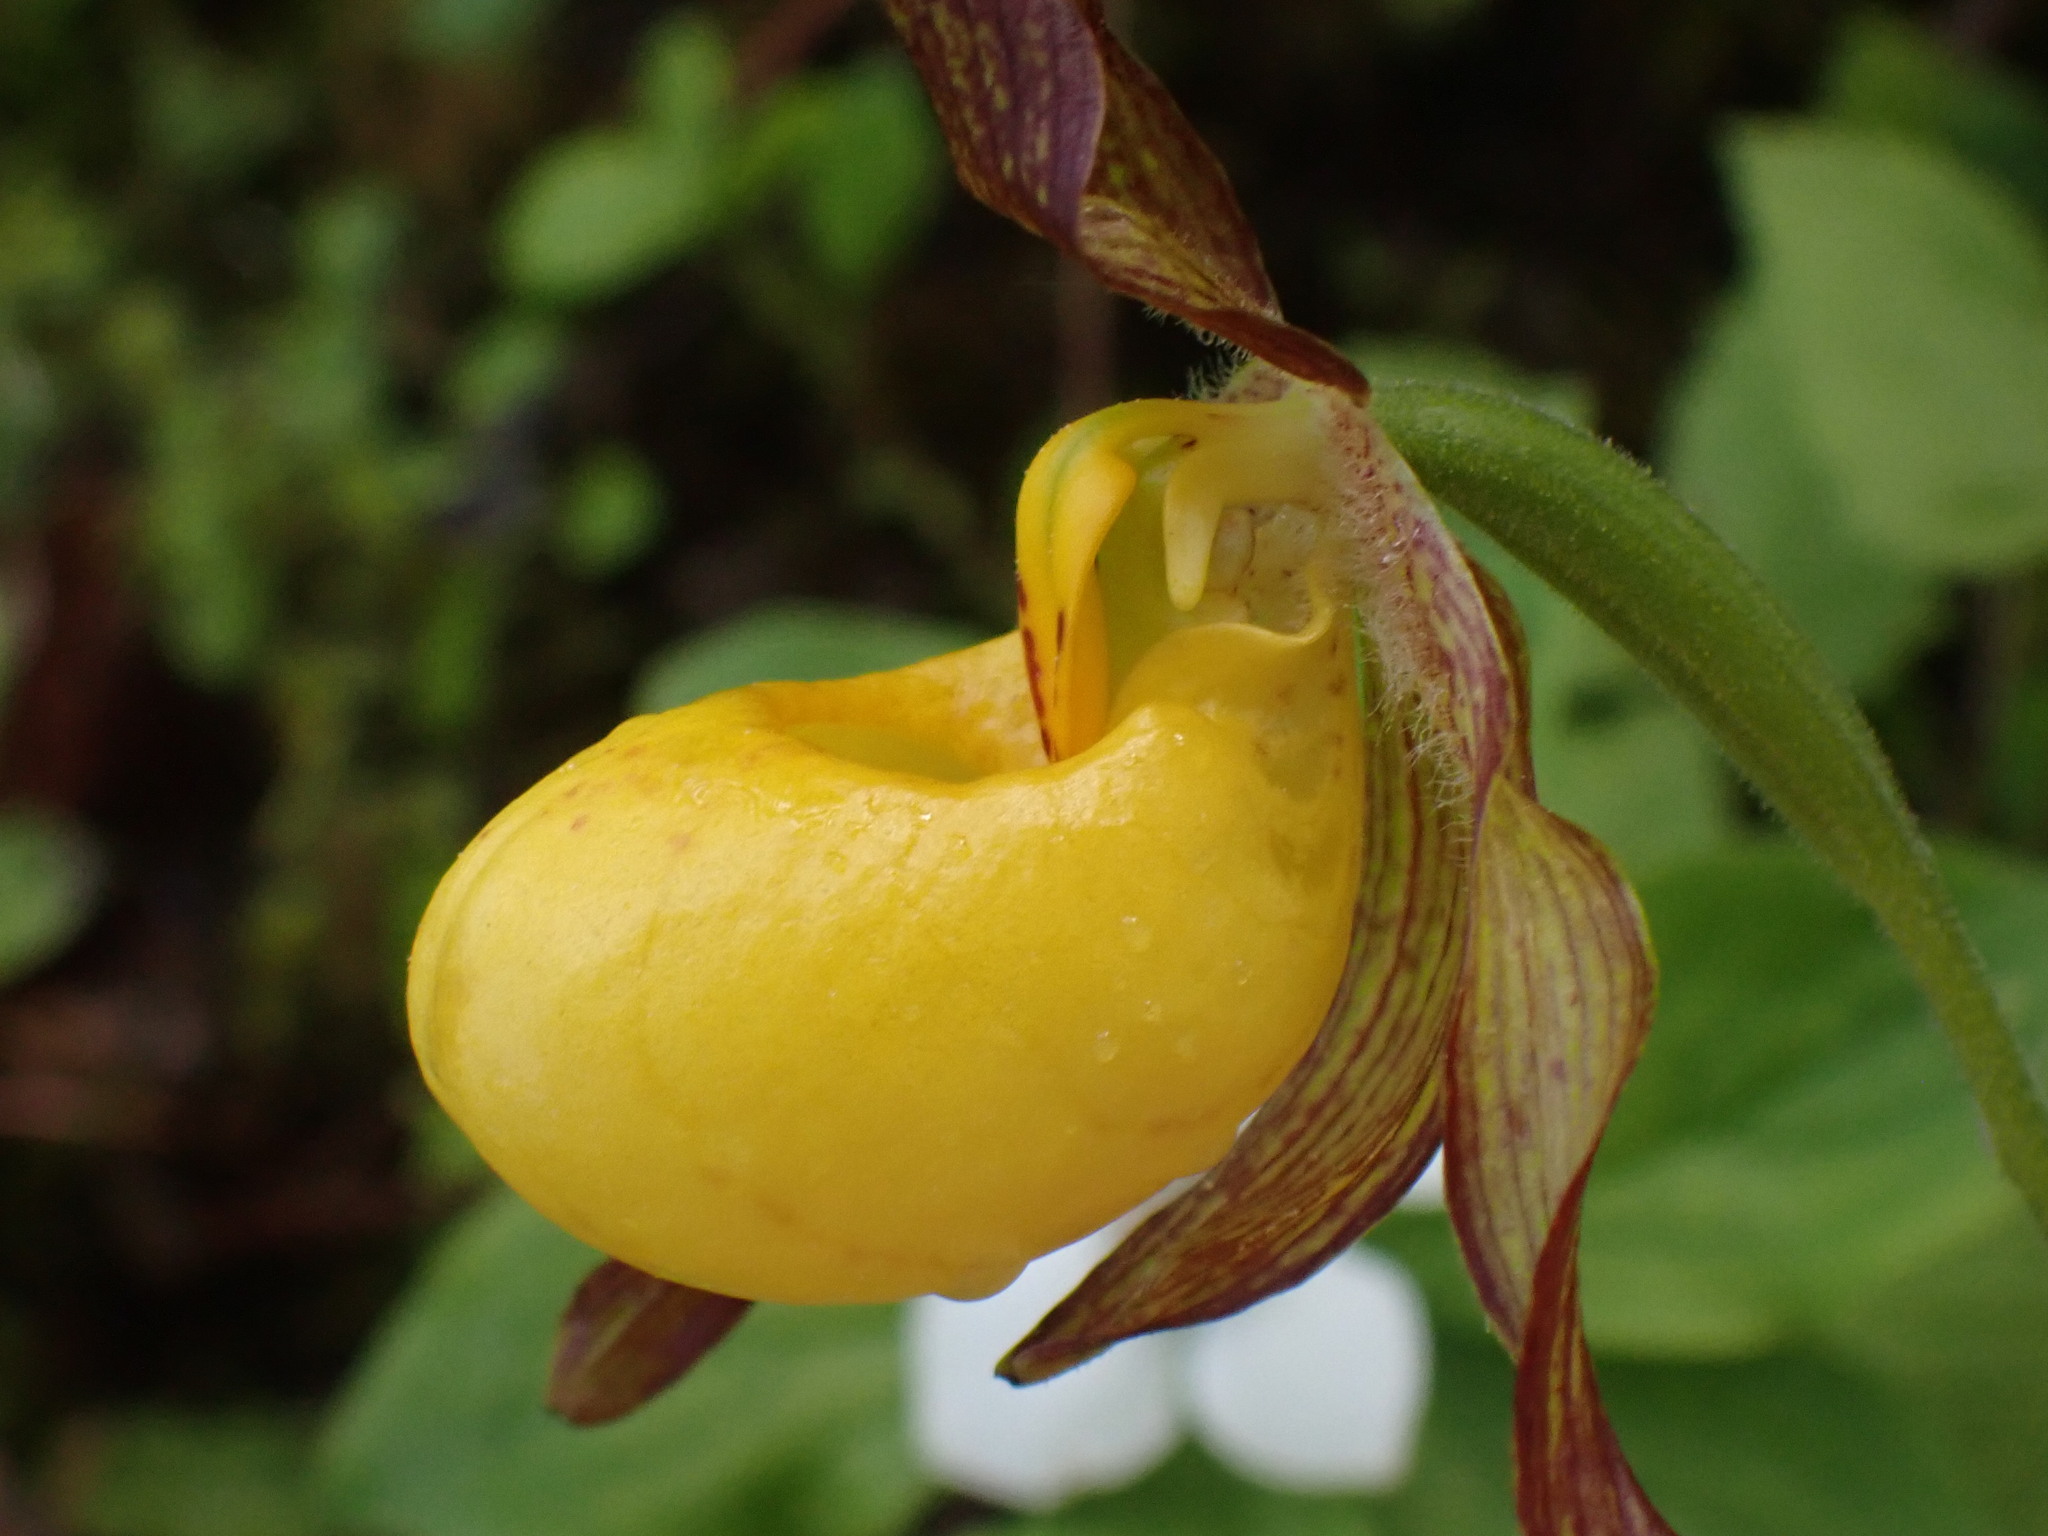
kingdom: Plantae
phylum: Tracheophyta
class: Liliopsida
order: Asparagales
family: Orchidaceae
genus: Cypripedium
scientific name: Cypripedium parviflorum
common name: American yellow lady's-slipper
